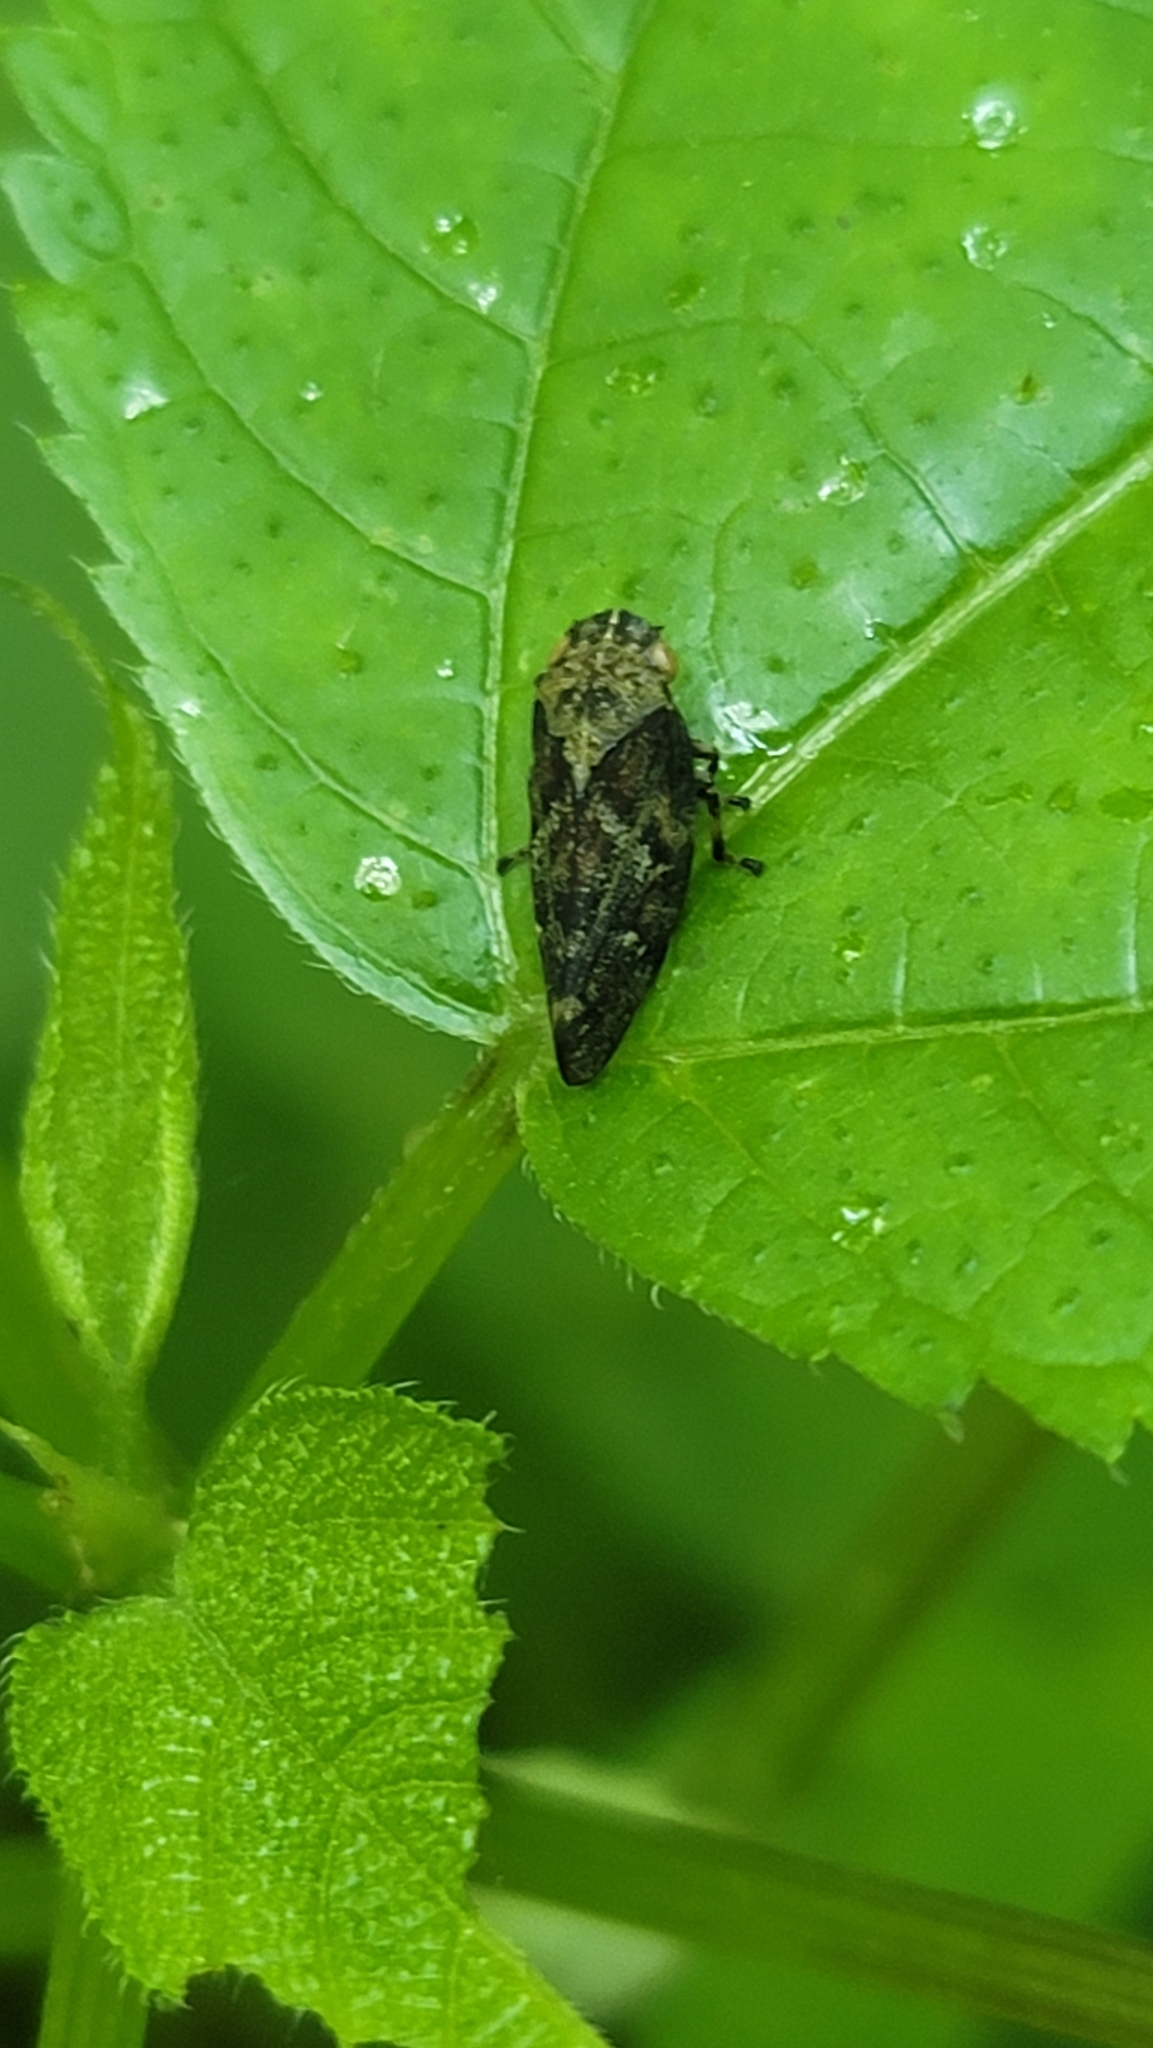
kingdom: Animalia
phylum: Arthropoda
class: Insecta
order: Hemiptera
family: Aphrophoridae
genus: Aphrophora
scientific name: Aphrophora saratogensis
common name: Saratoga spittlebug
